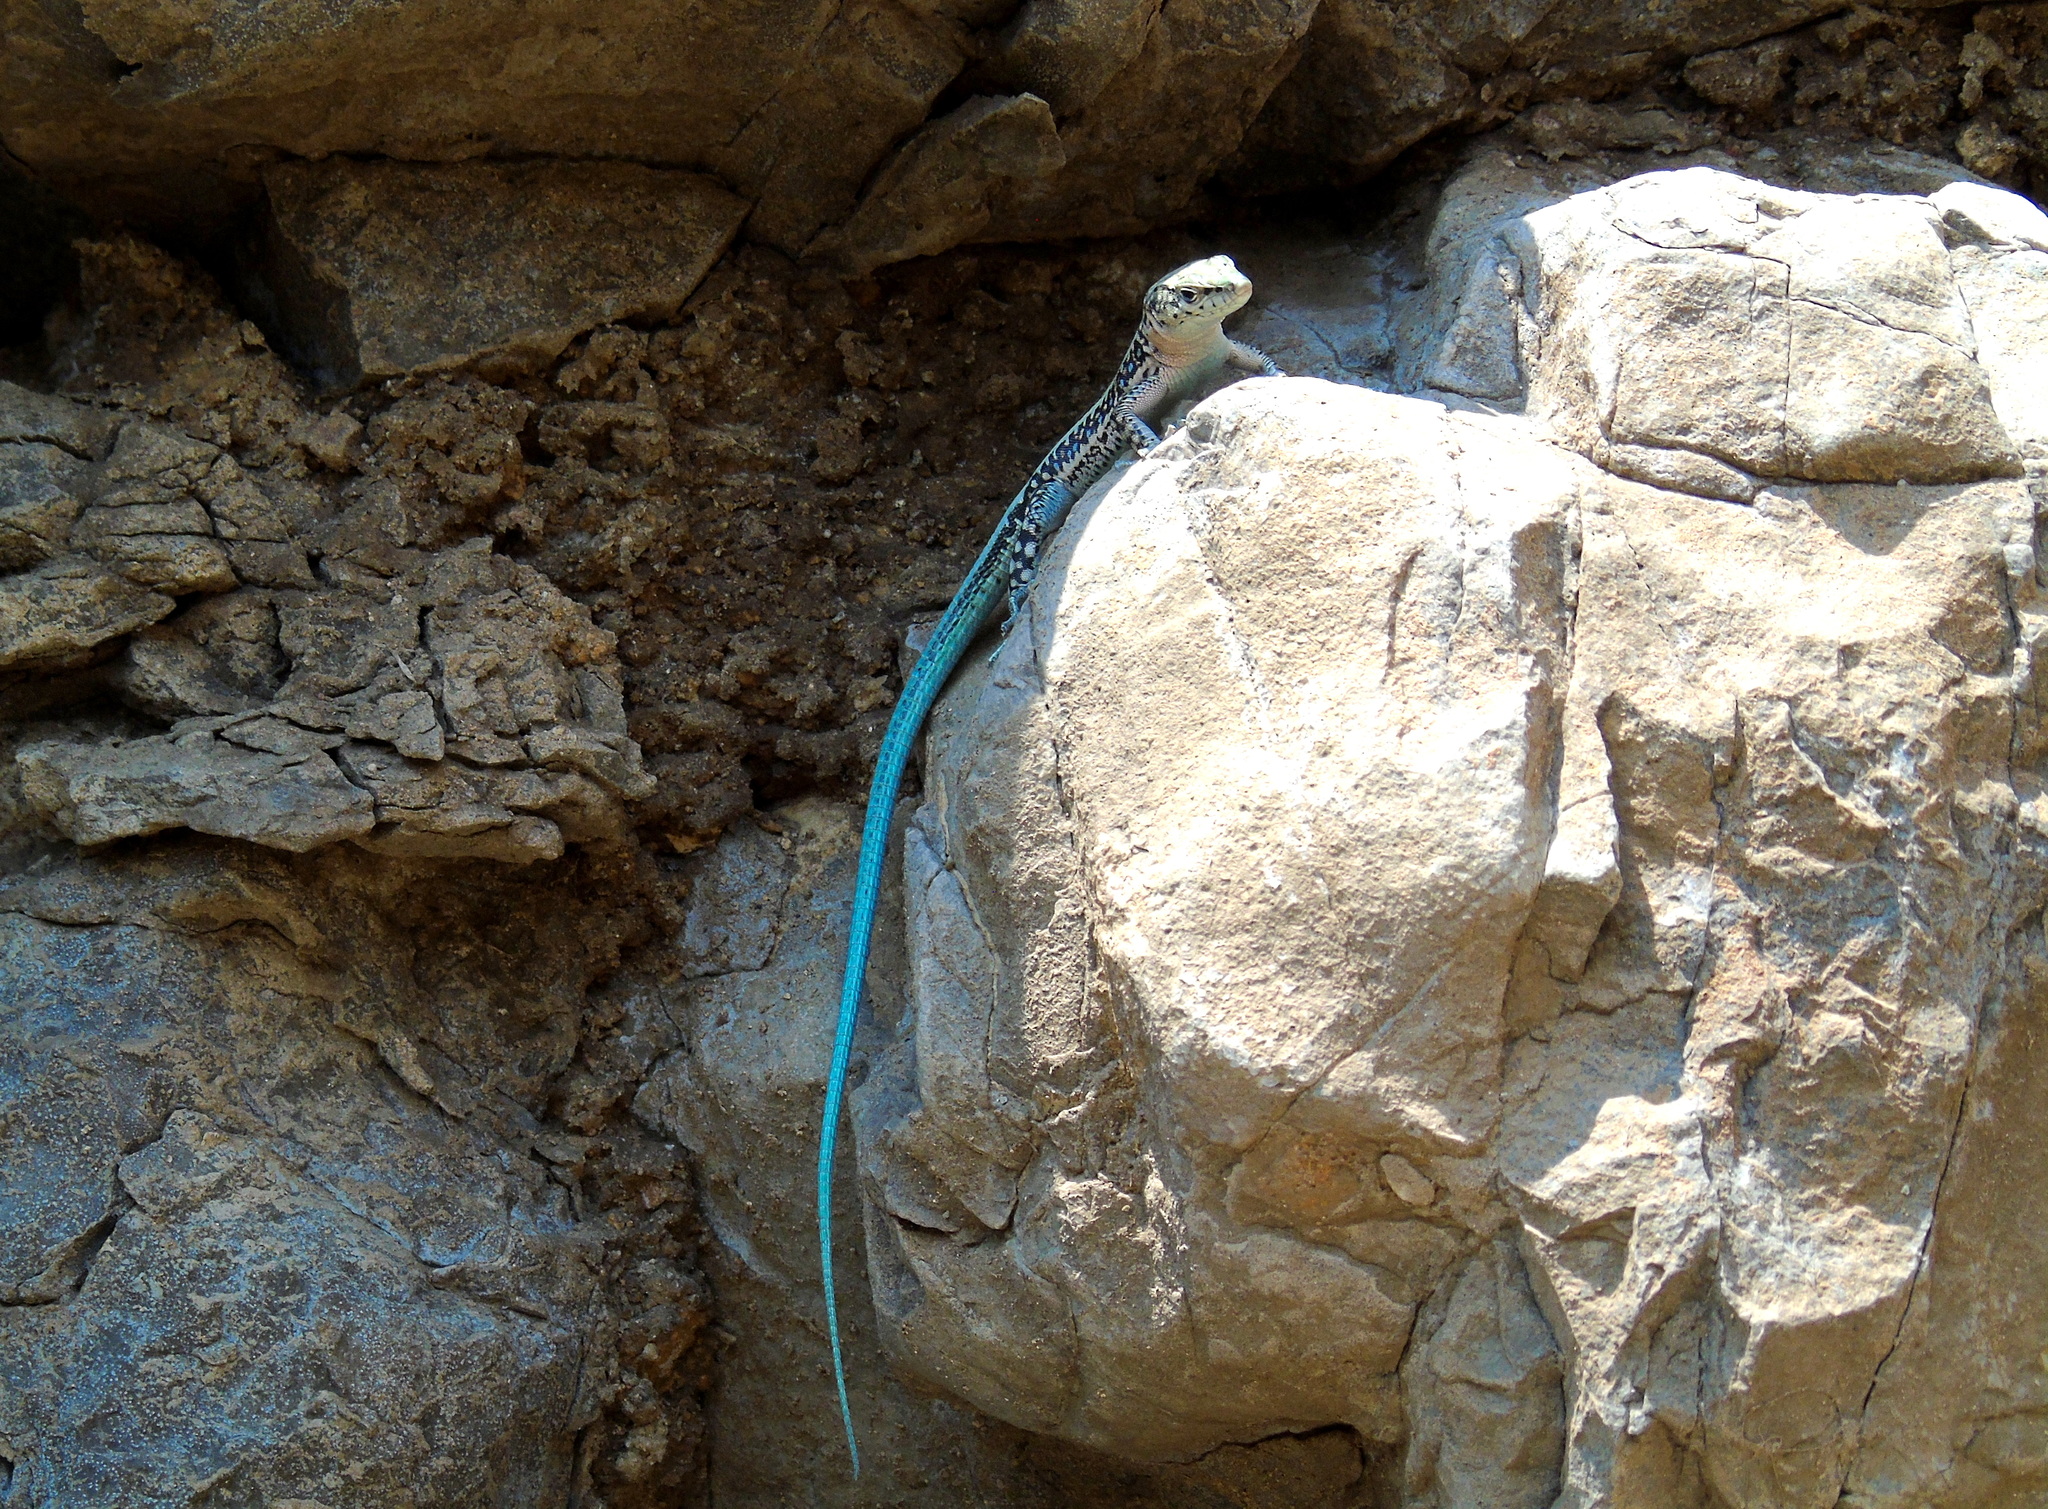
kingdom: Animalia
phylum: Chordata
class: Squamata
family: Lacertidae
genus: Apathya
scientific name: Apathya cappadocica
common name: Anatolian lizard
